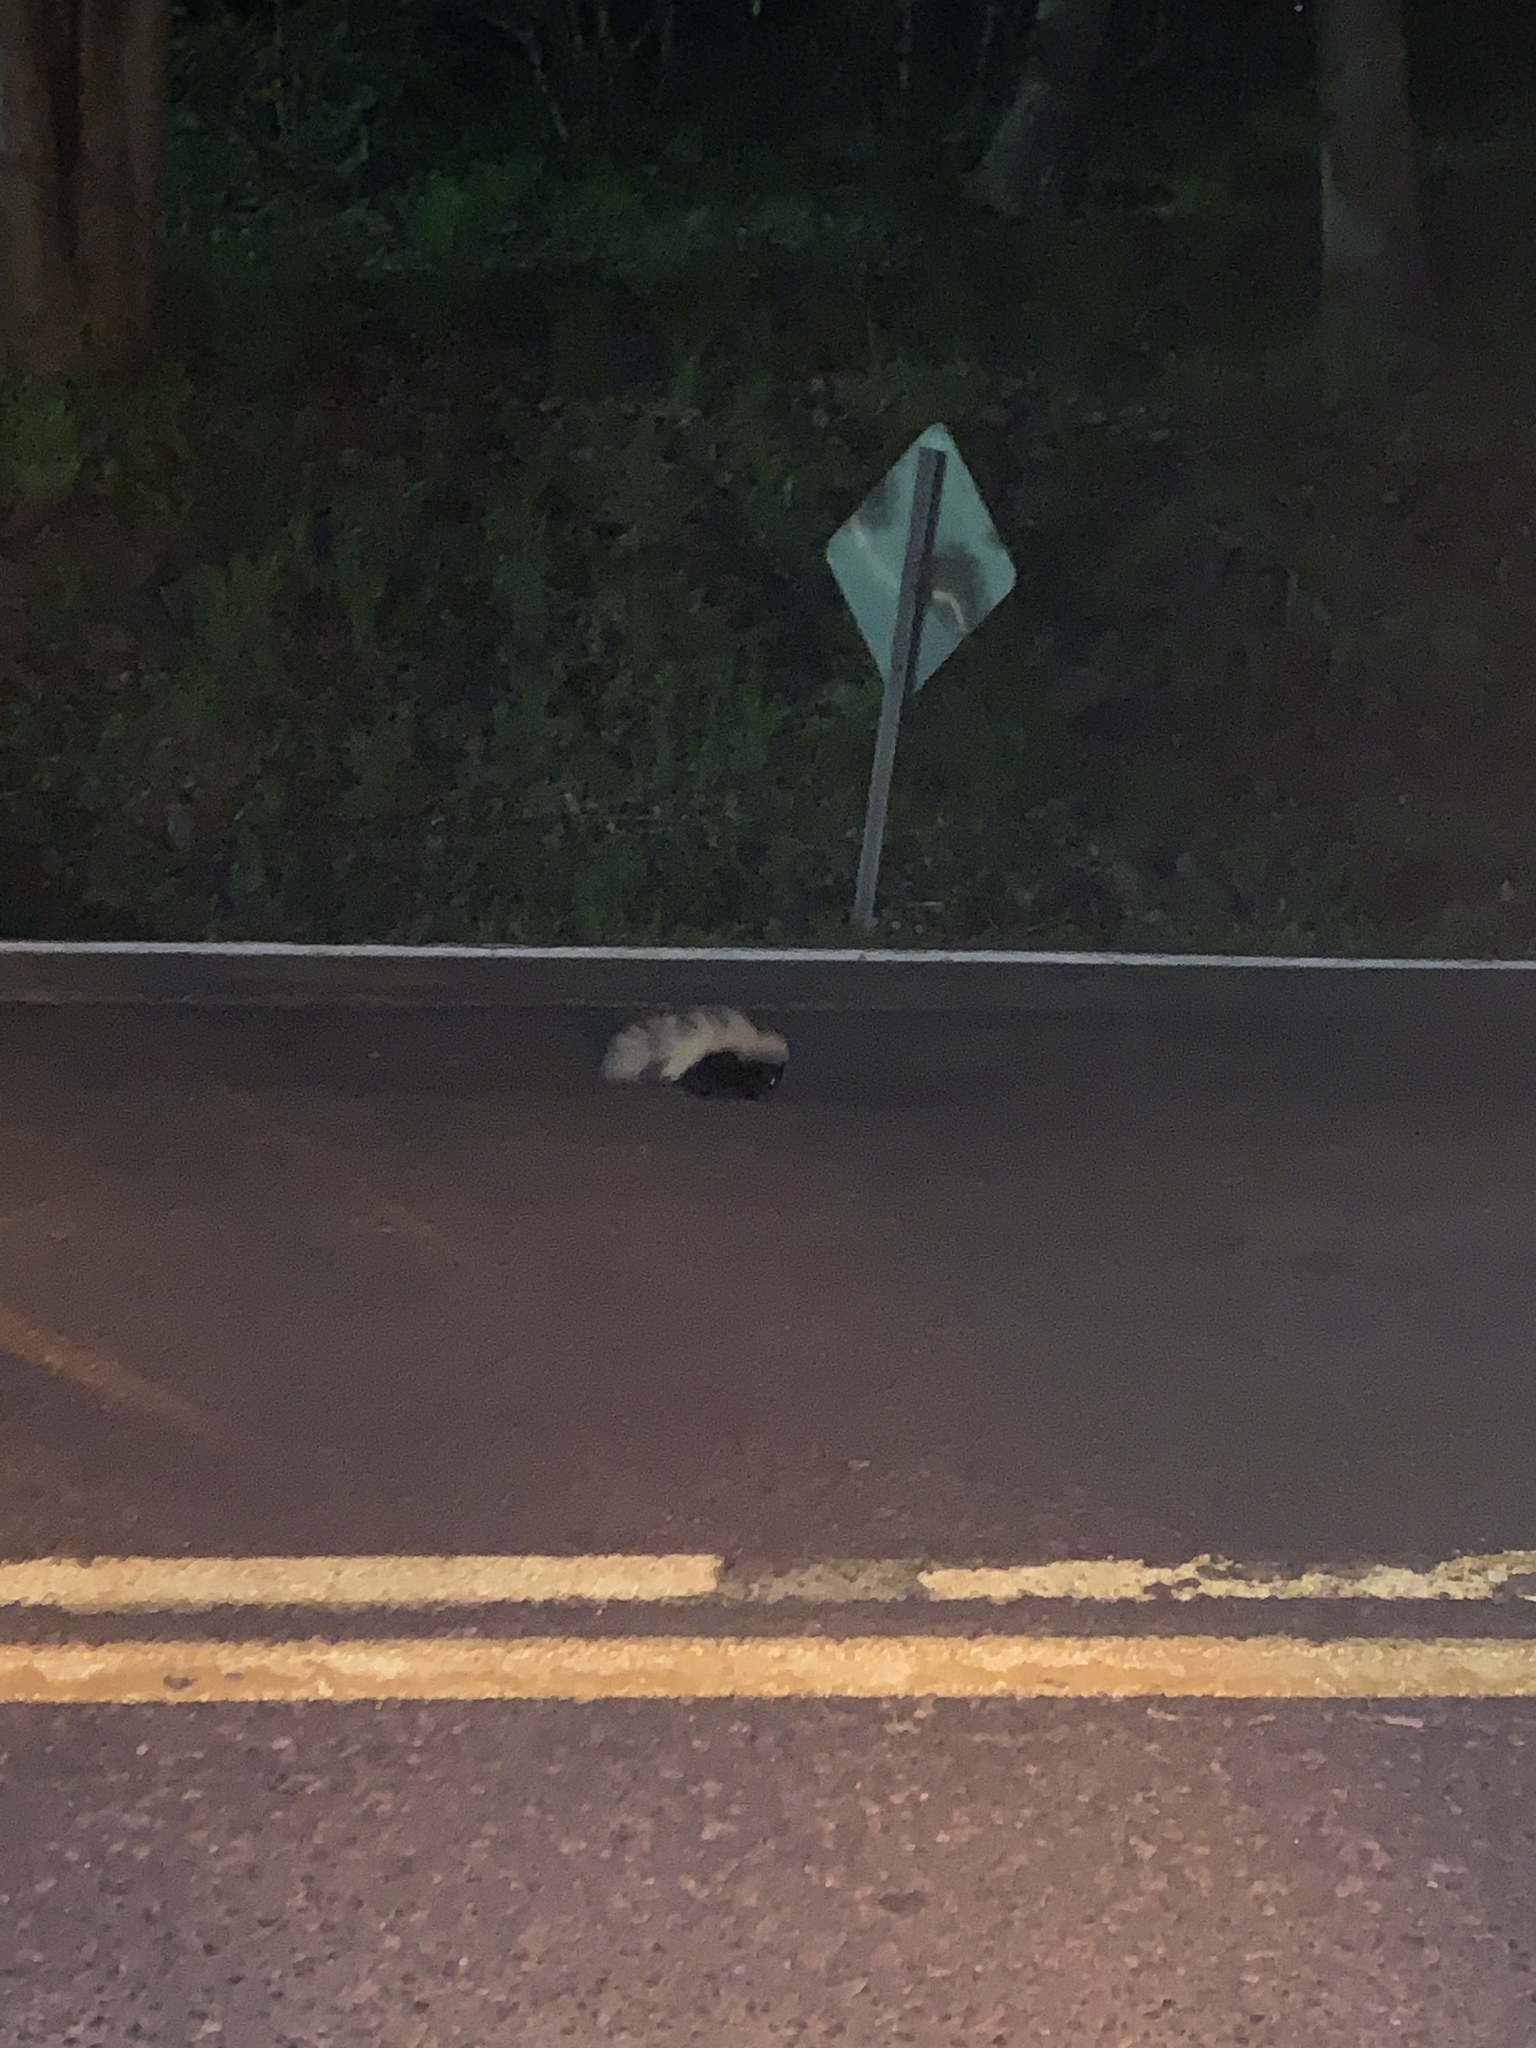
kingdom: Animalia
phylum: Chordata
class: Mammalia
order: Carnivora
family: Mephitidae
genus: Mephitis
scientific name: Mephitis mephitis
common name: Striped skunk
